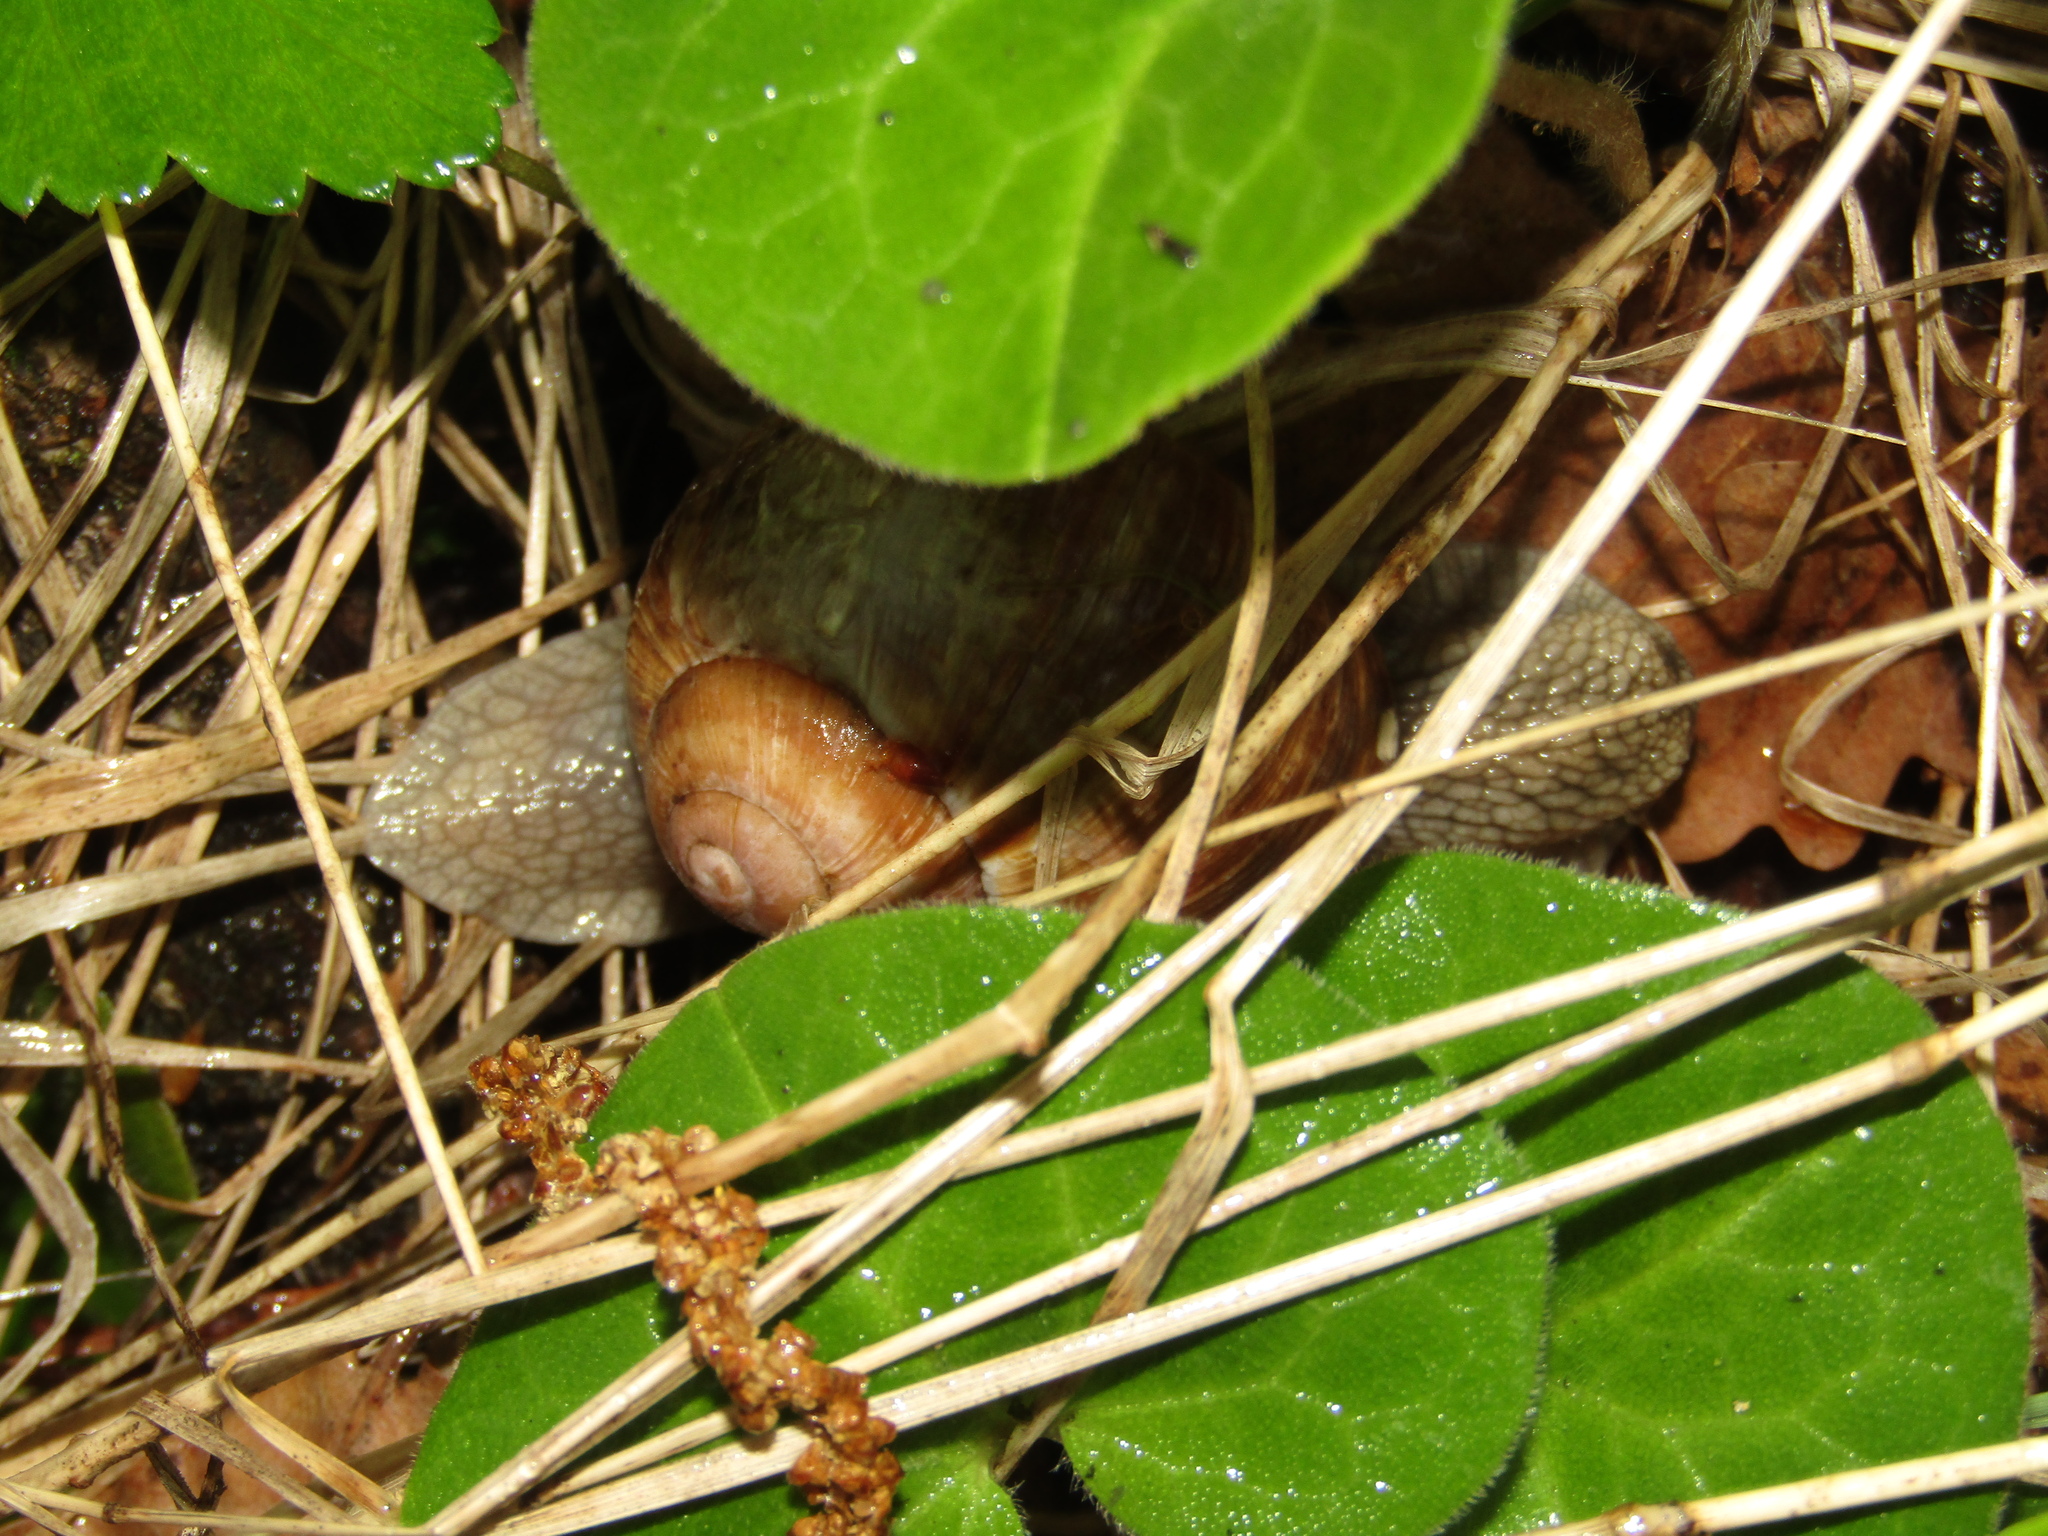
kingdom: Animalia
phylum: Mollusca
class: Gastropoda
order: Stylommatophora
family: Helicidae
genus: Helix
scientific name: Helix pomatia
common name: Roman snail
